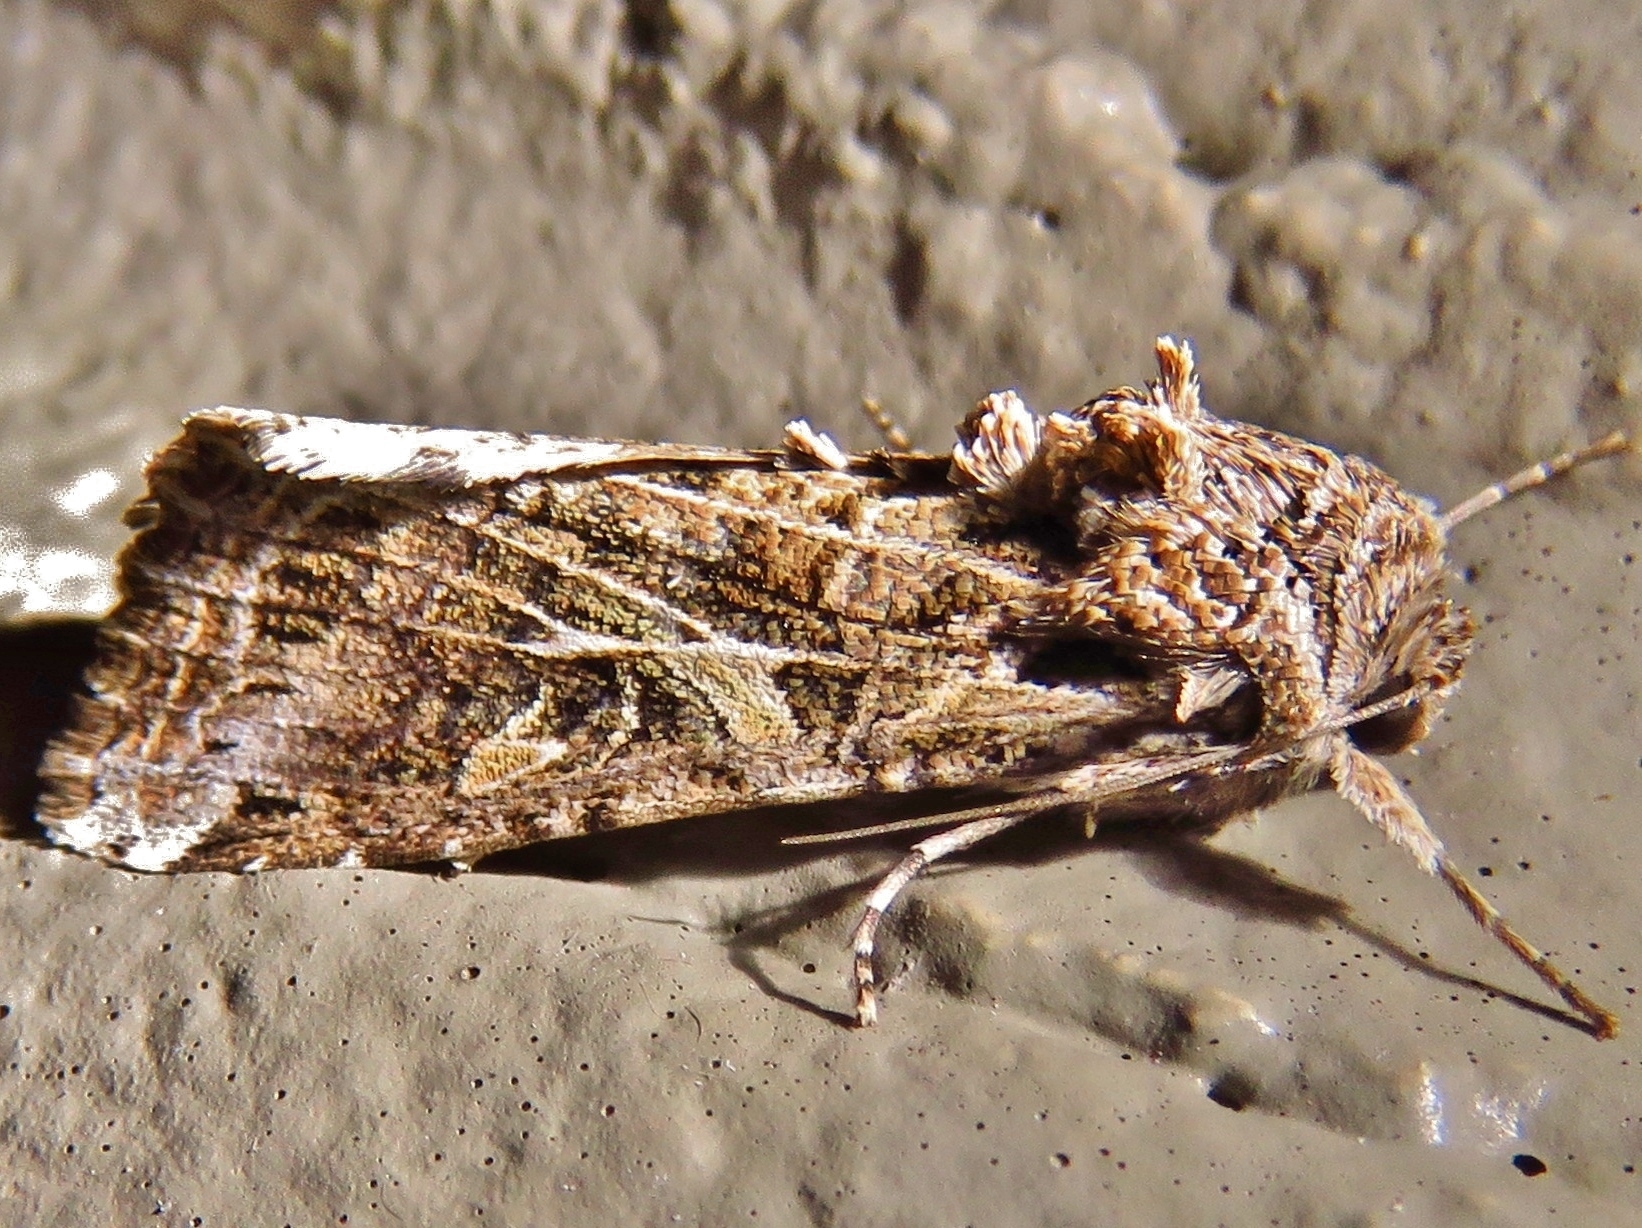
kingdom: Animalia
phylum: Arthropoda
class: Insecta
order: Lepidoptera
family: Noctuidae
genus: Spodoptera
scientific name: Spodoptera ornithogalli
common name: Yellow-striped armyworm
